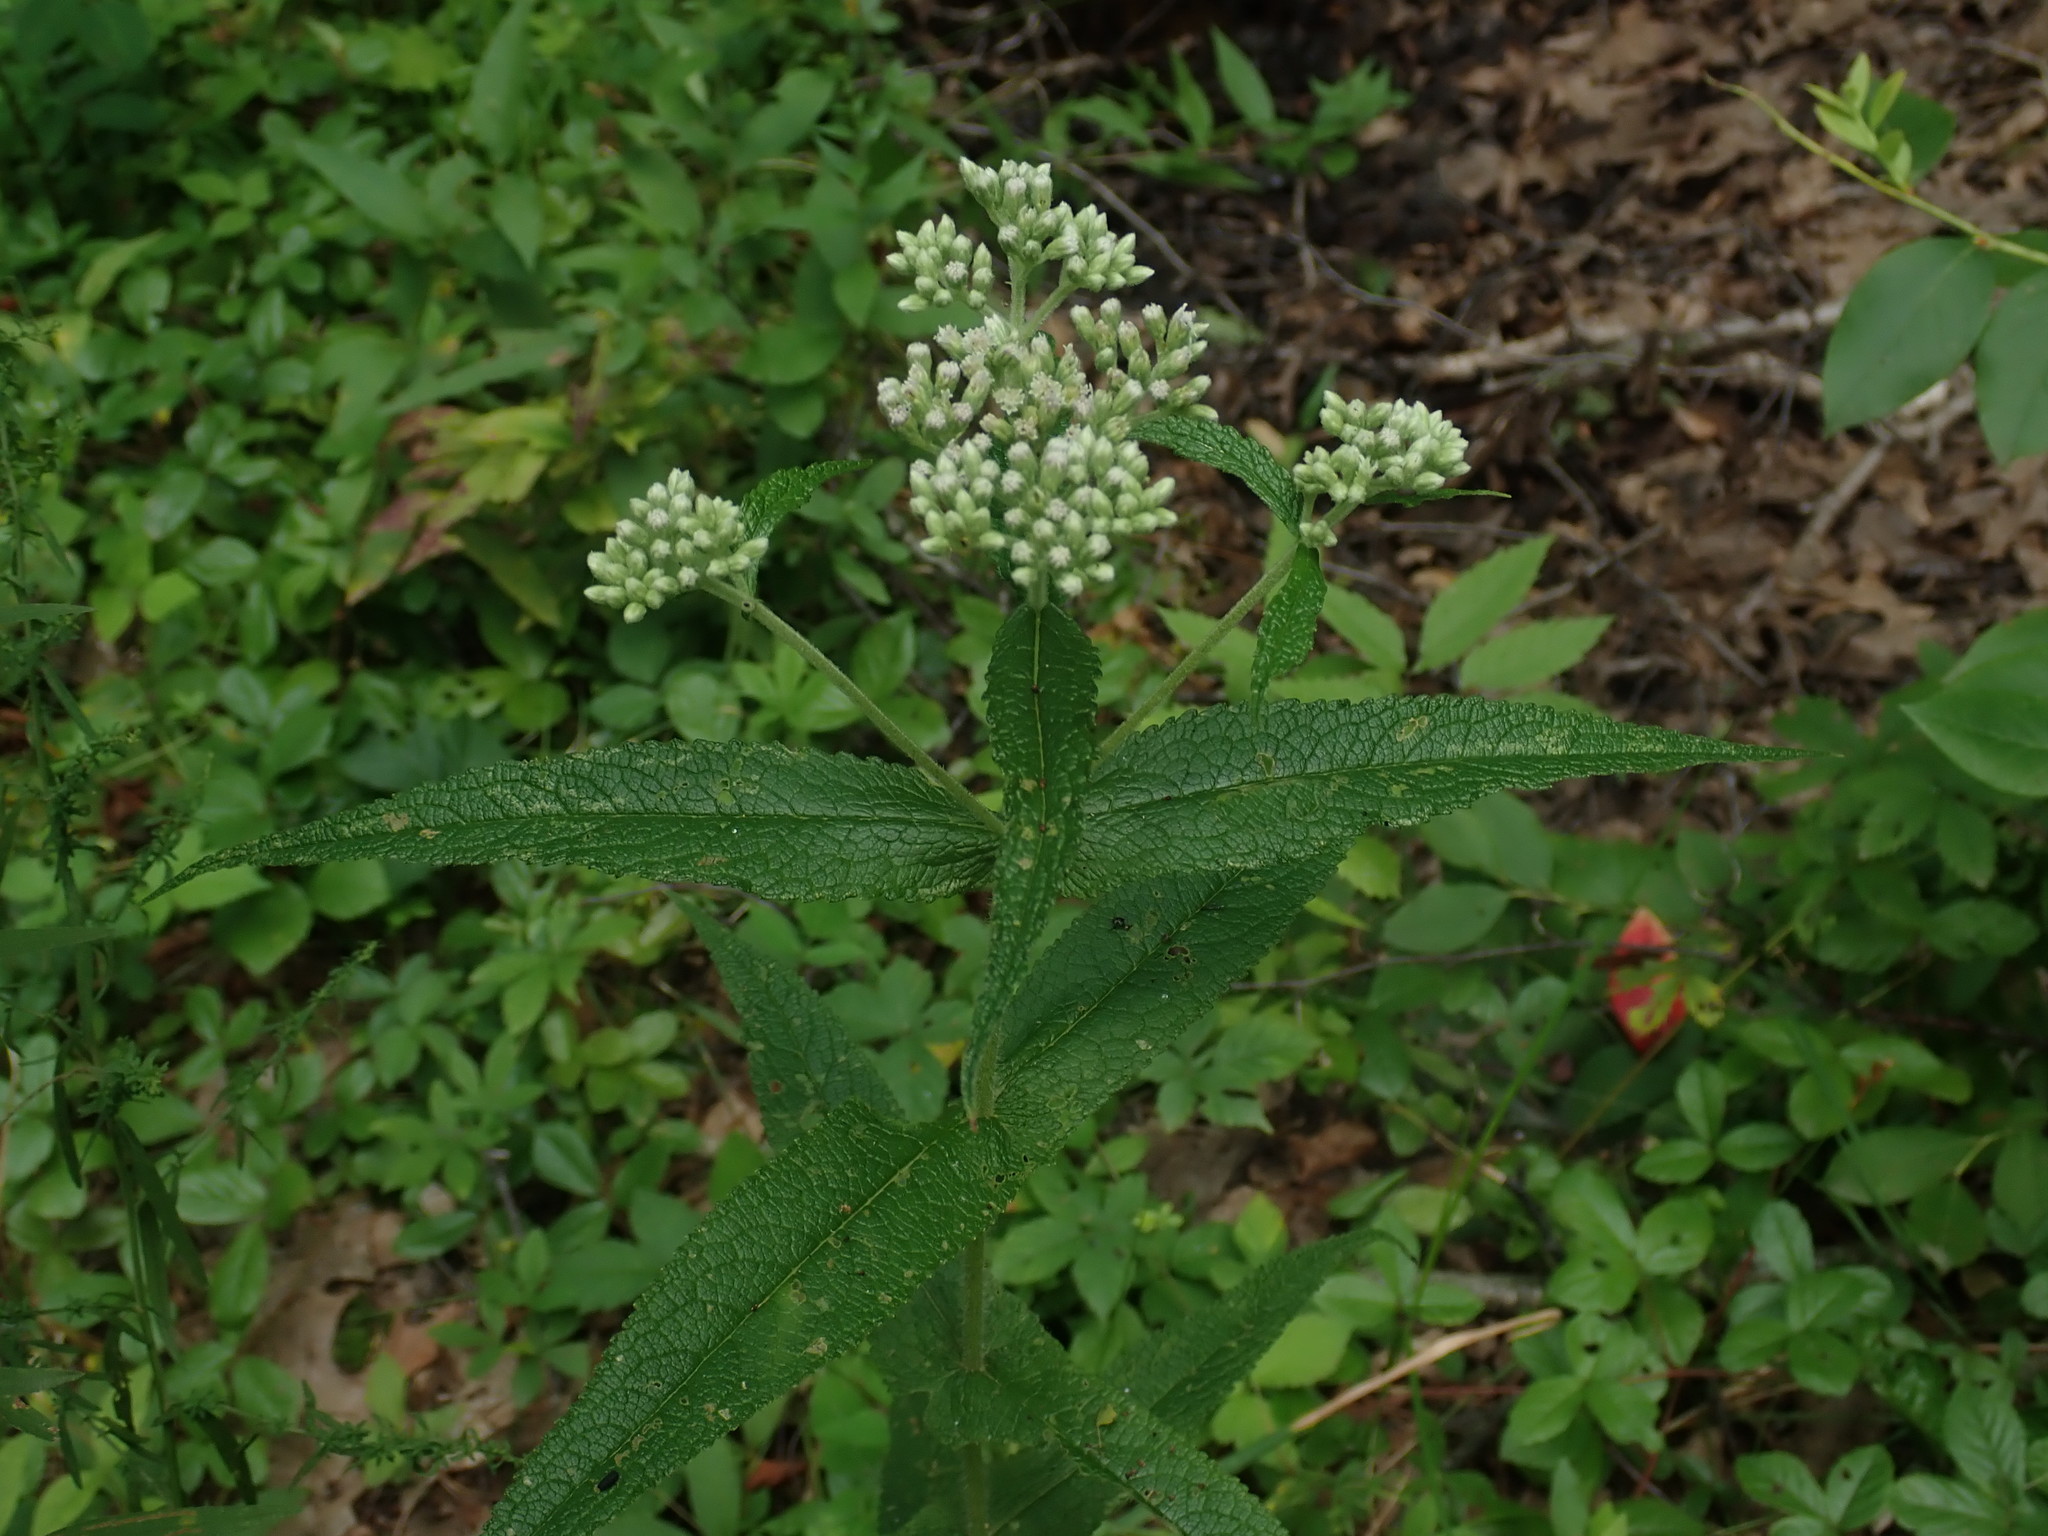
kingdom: Plantae
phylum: Tracheophyta
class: Magnoliopsida
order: Asterales
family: Asteraceae
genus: Eupatorium
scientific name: Eupatorium perfoliatum
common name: Boneset
